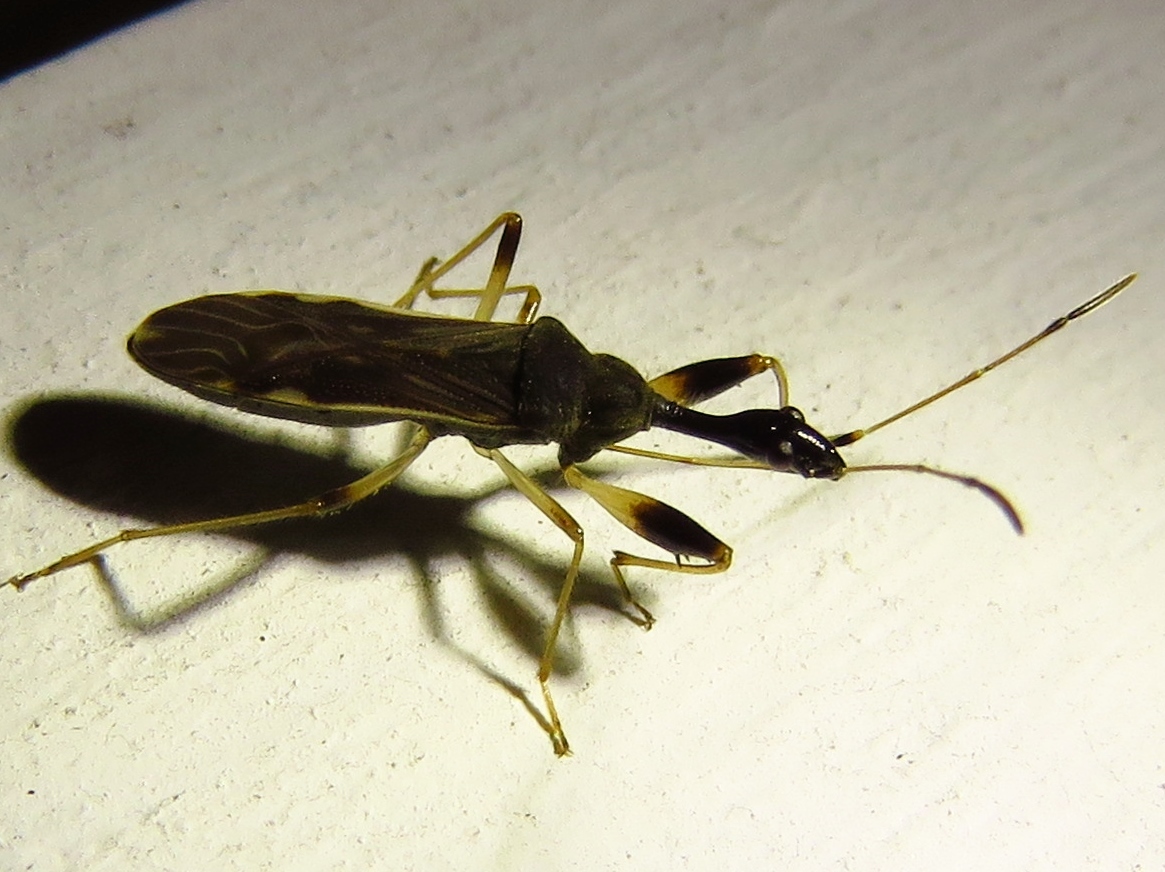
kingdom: Animalia
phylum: Arthropoda
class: Insecta
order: Hemiptera
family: Rhyparochromidae
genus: Myodocha
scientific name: Myodocha serripes
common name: Long-necked seed bug
